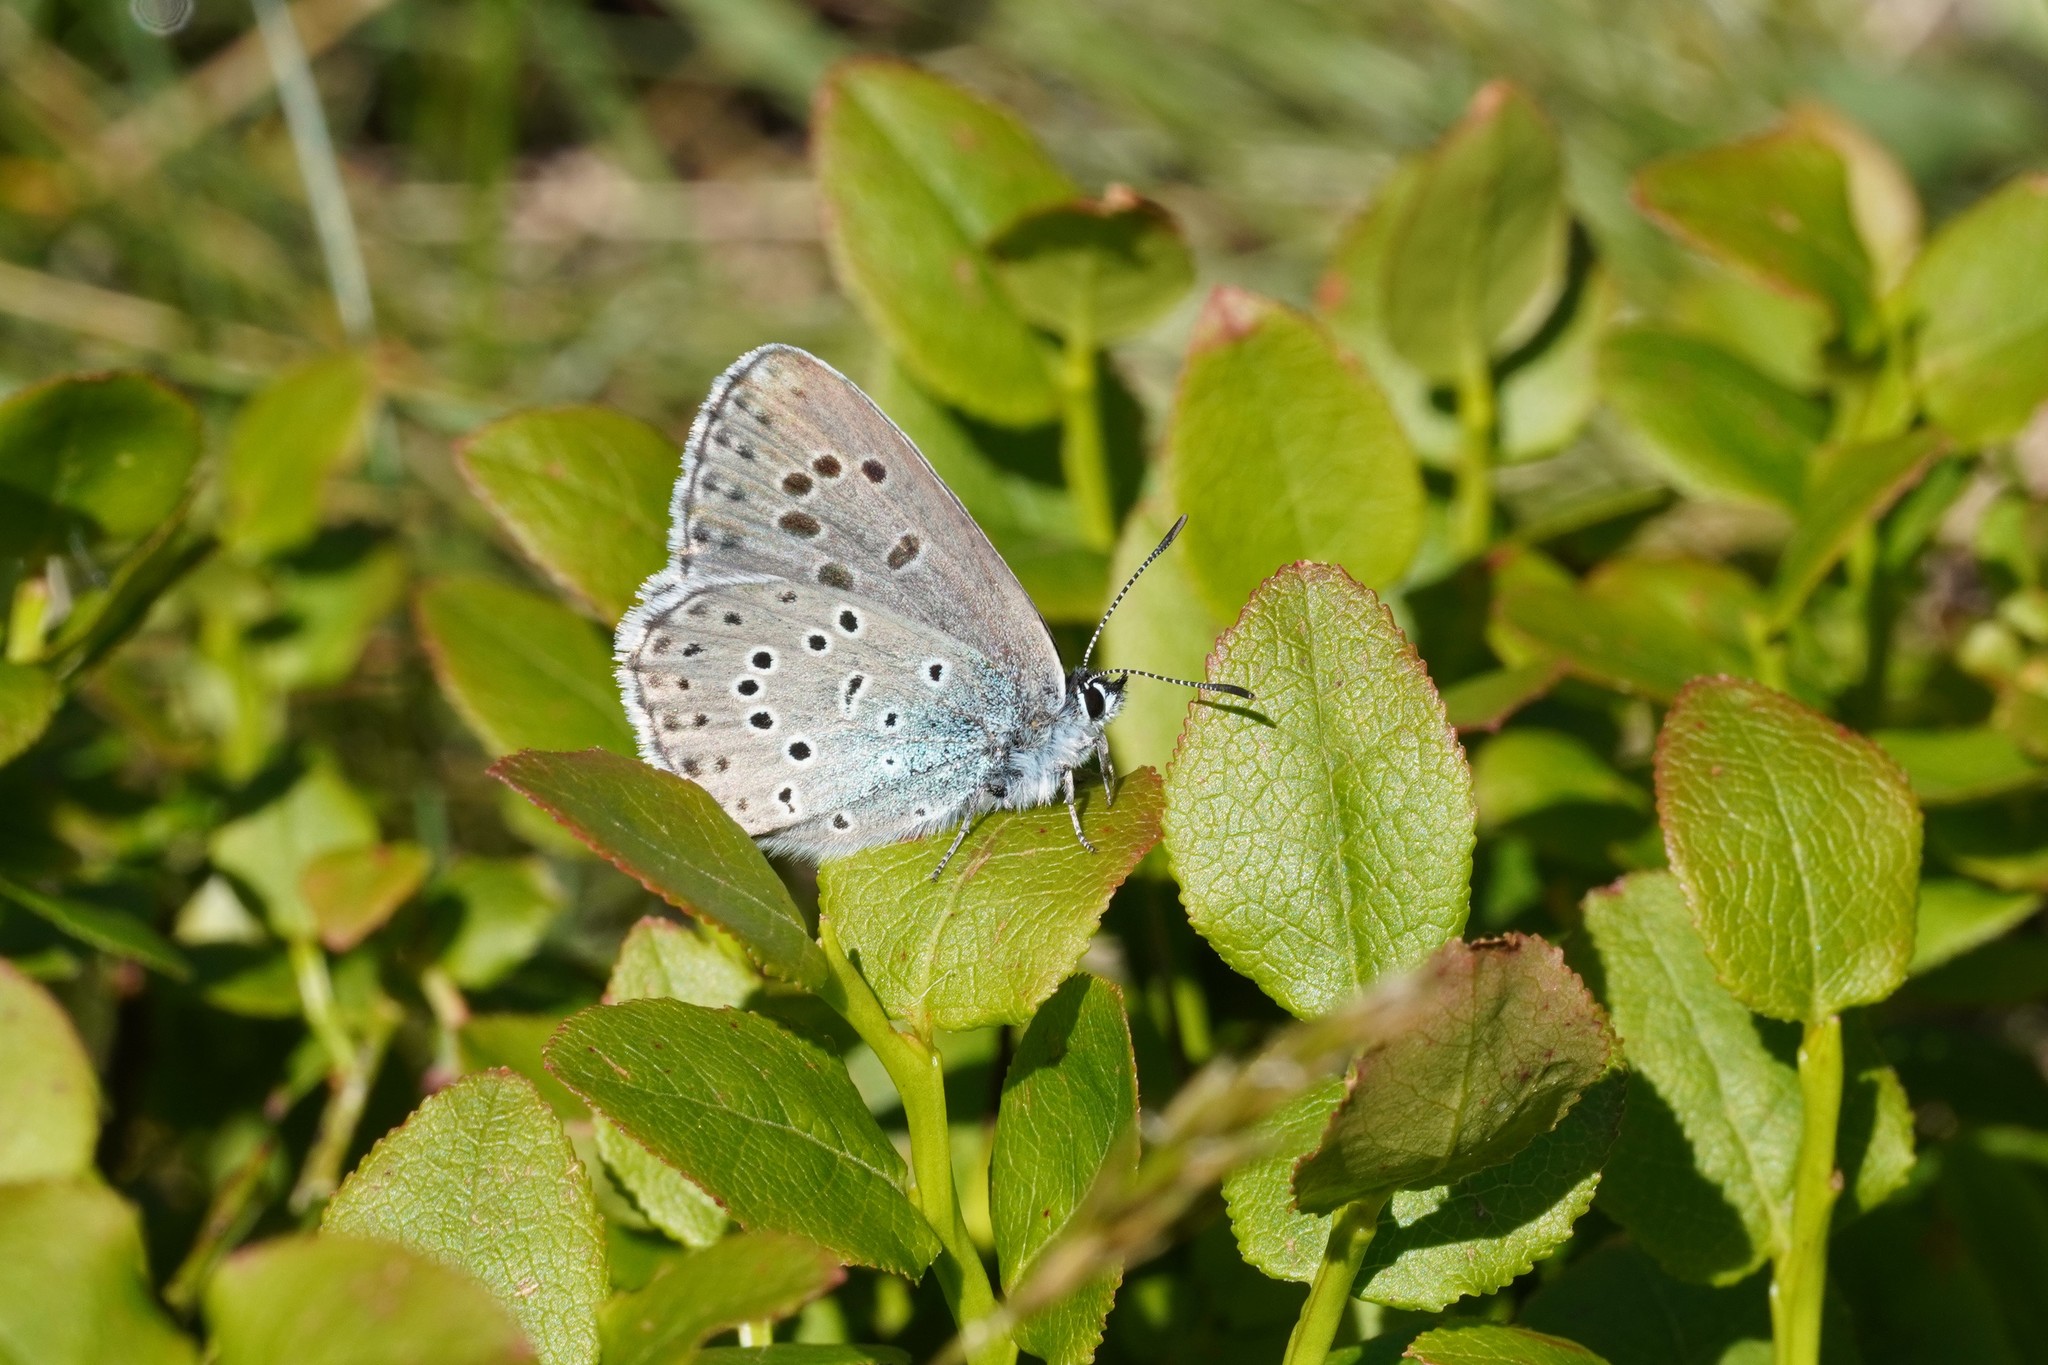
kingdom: Animalia
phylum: Arthropoda
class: Insecta
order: Lepidoptera
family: Lycaenidae
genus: Maculinea
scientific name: Maculinea arion
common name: Large blue
